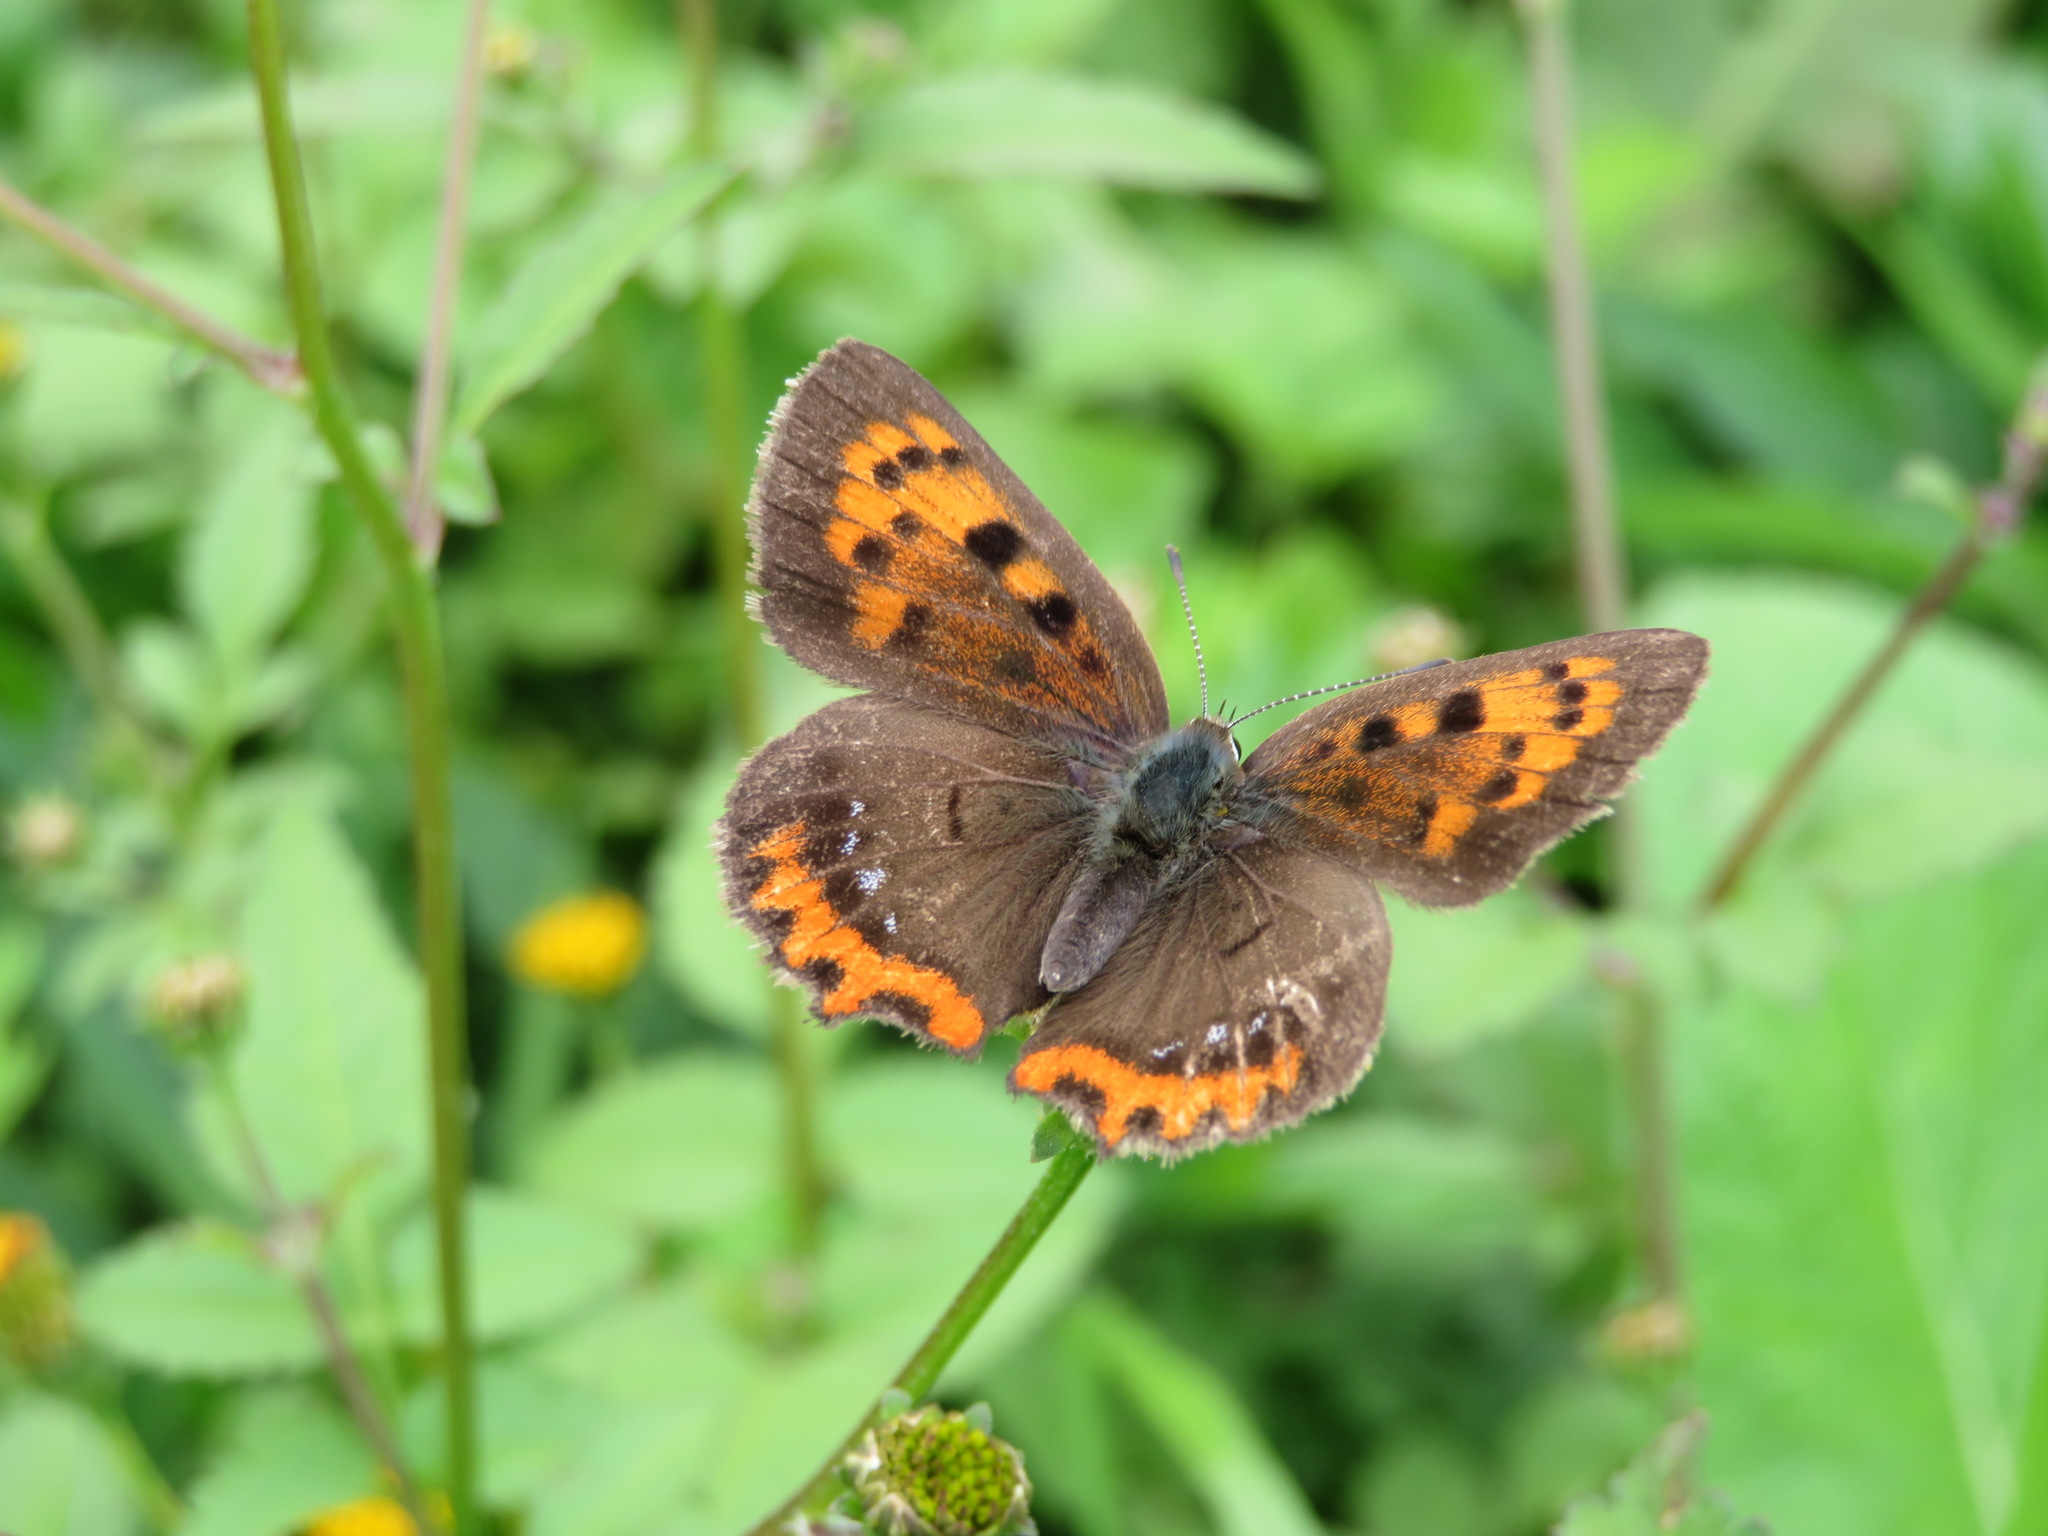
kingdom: Animalia
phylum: Arthropoda
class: Insecta
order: Lepidoptera
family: Lycaenidae
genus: Lycaena
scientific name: Lycaena phlaeas
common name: Small copper
